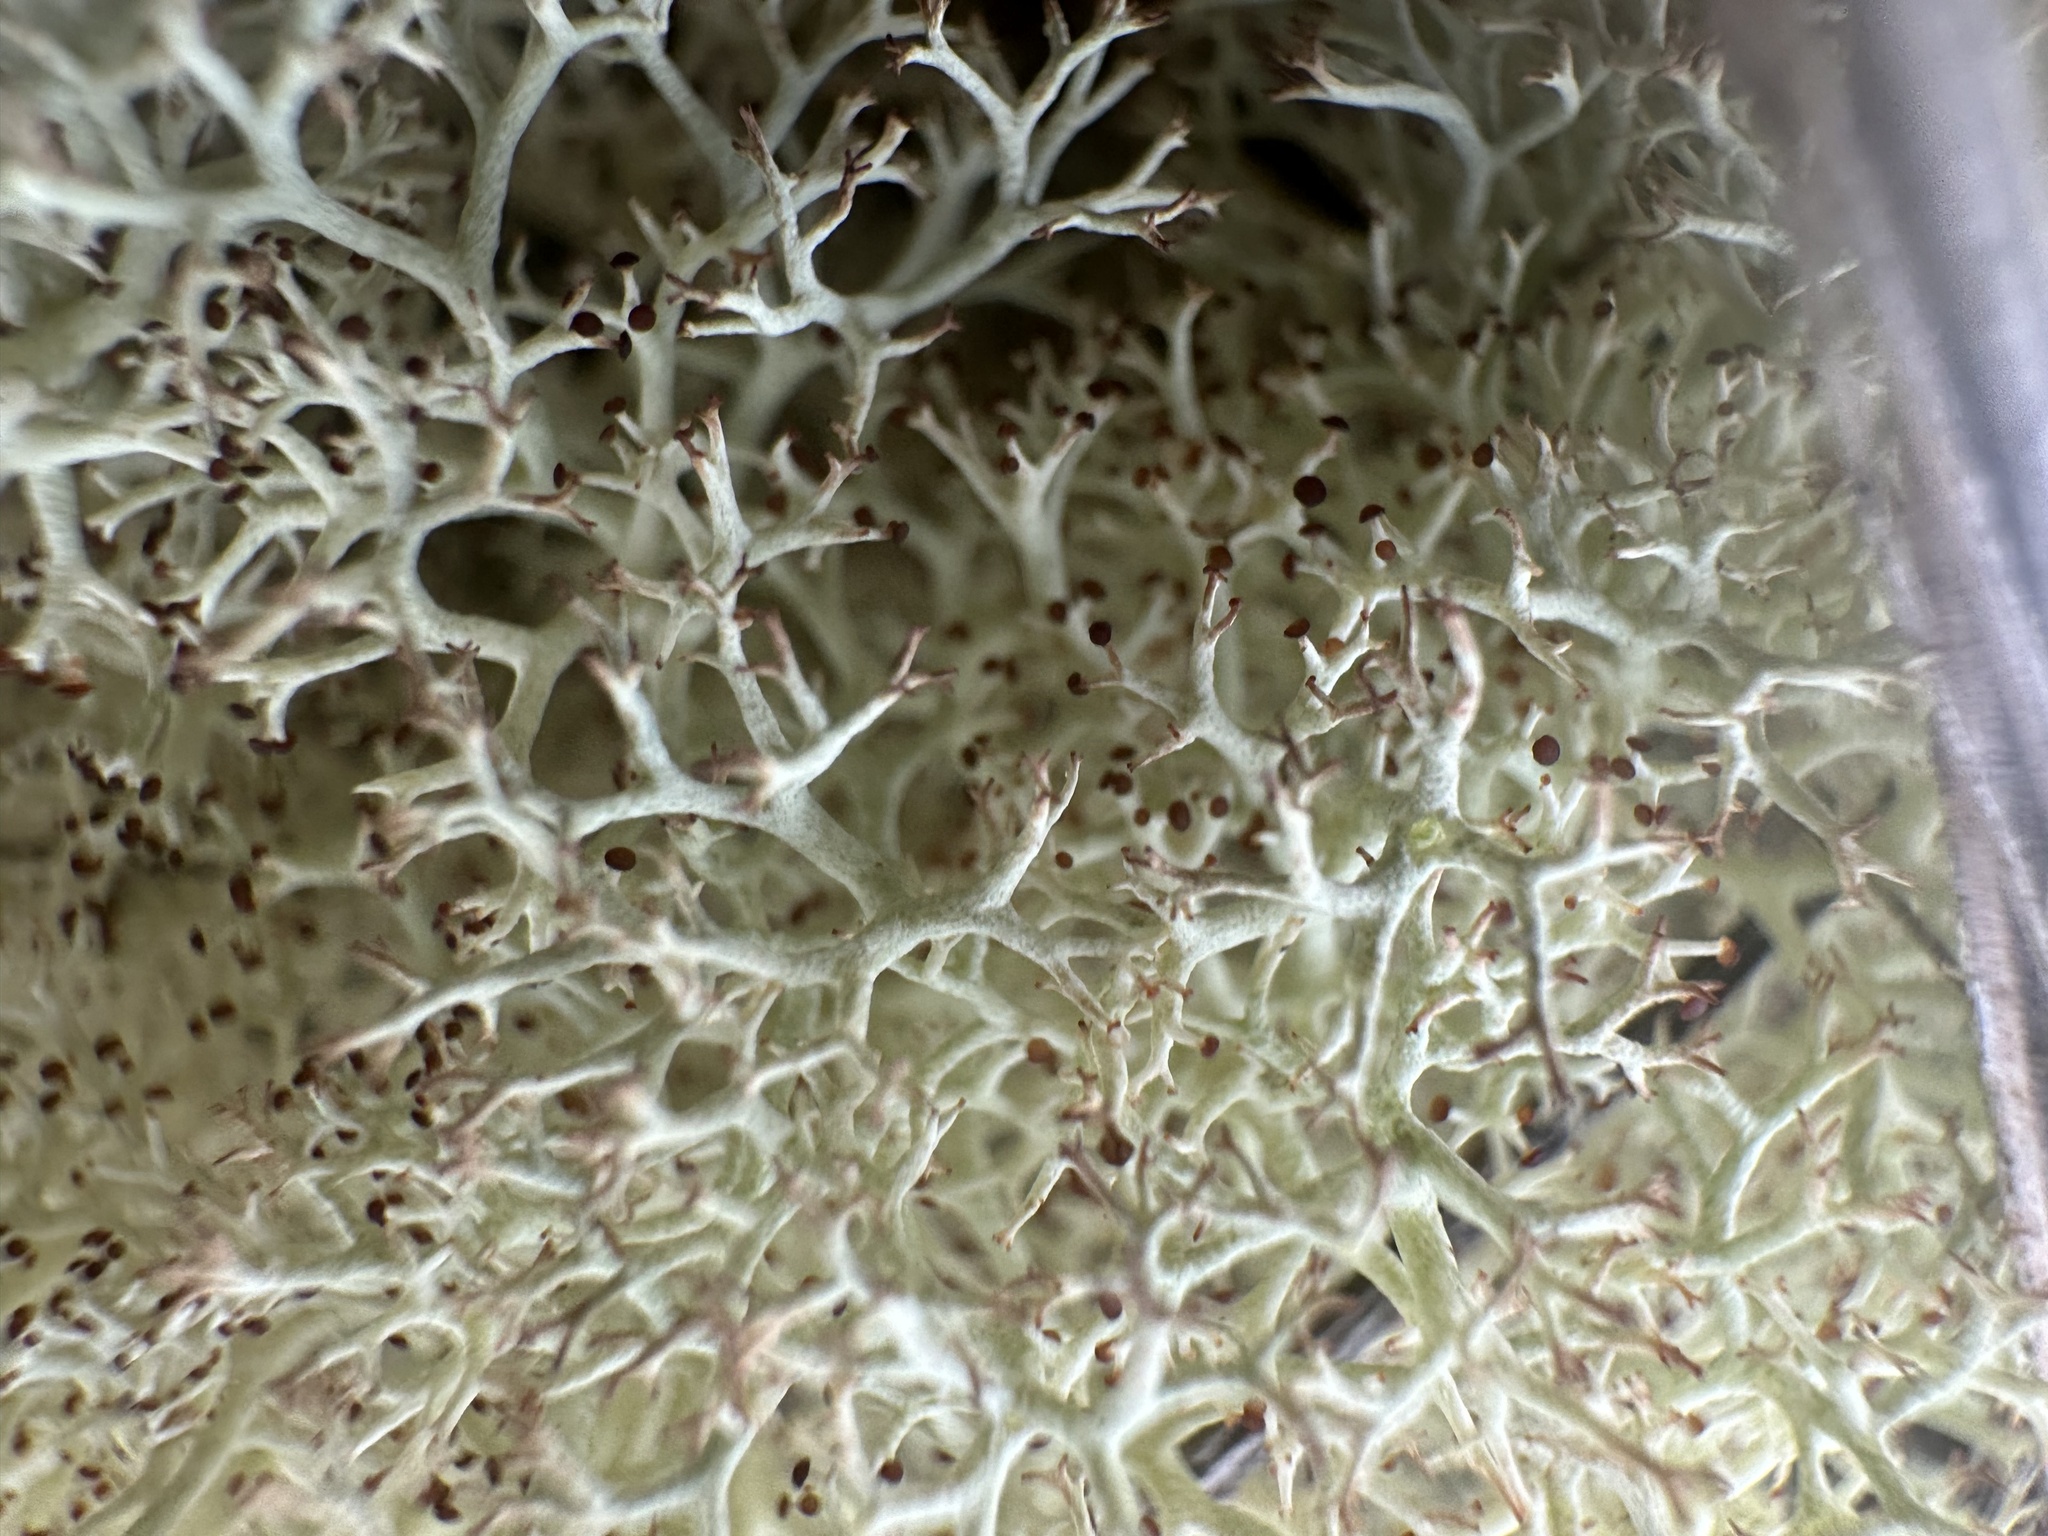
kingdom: Fungi
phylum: Ascomycota
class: Lecanoromycetes
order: Lecanorales
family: Cladoniaceae
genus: Cladonia
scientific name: Cladonia subtenuis
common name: Dixie reindeer lichen
